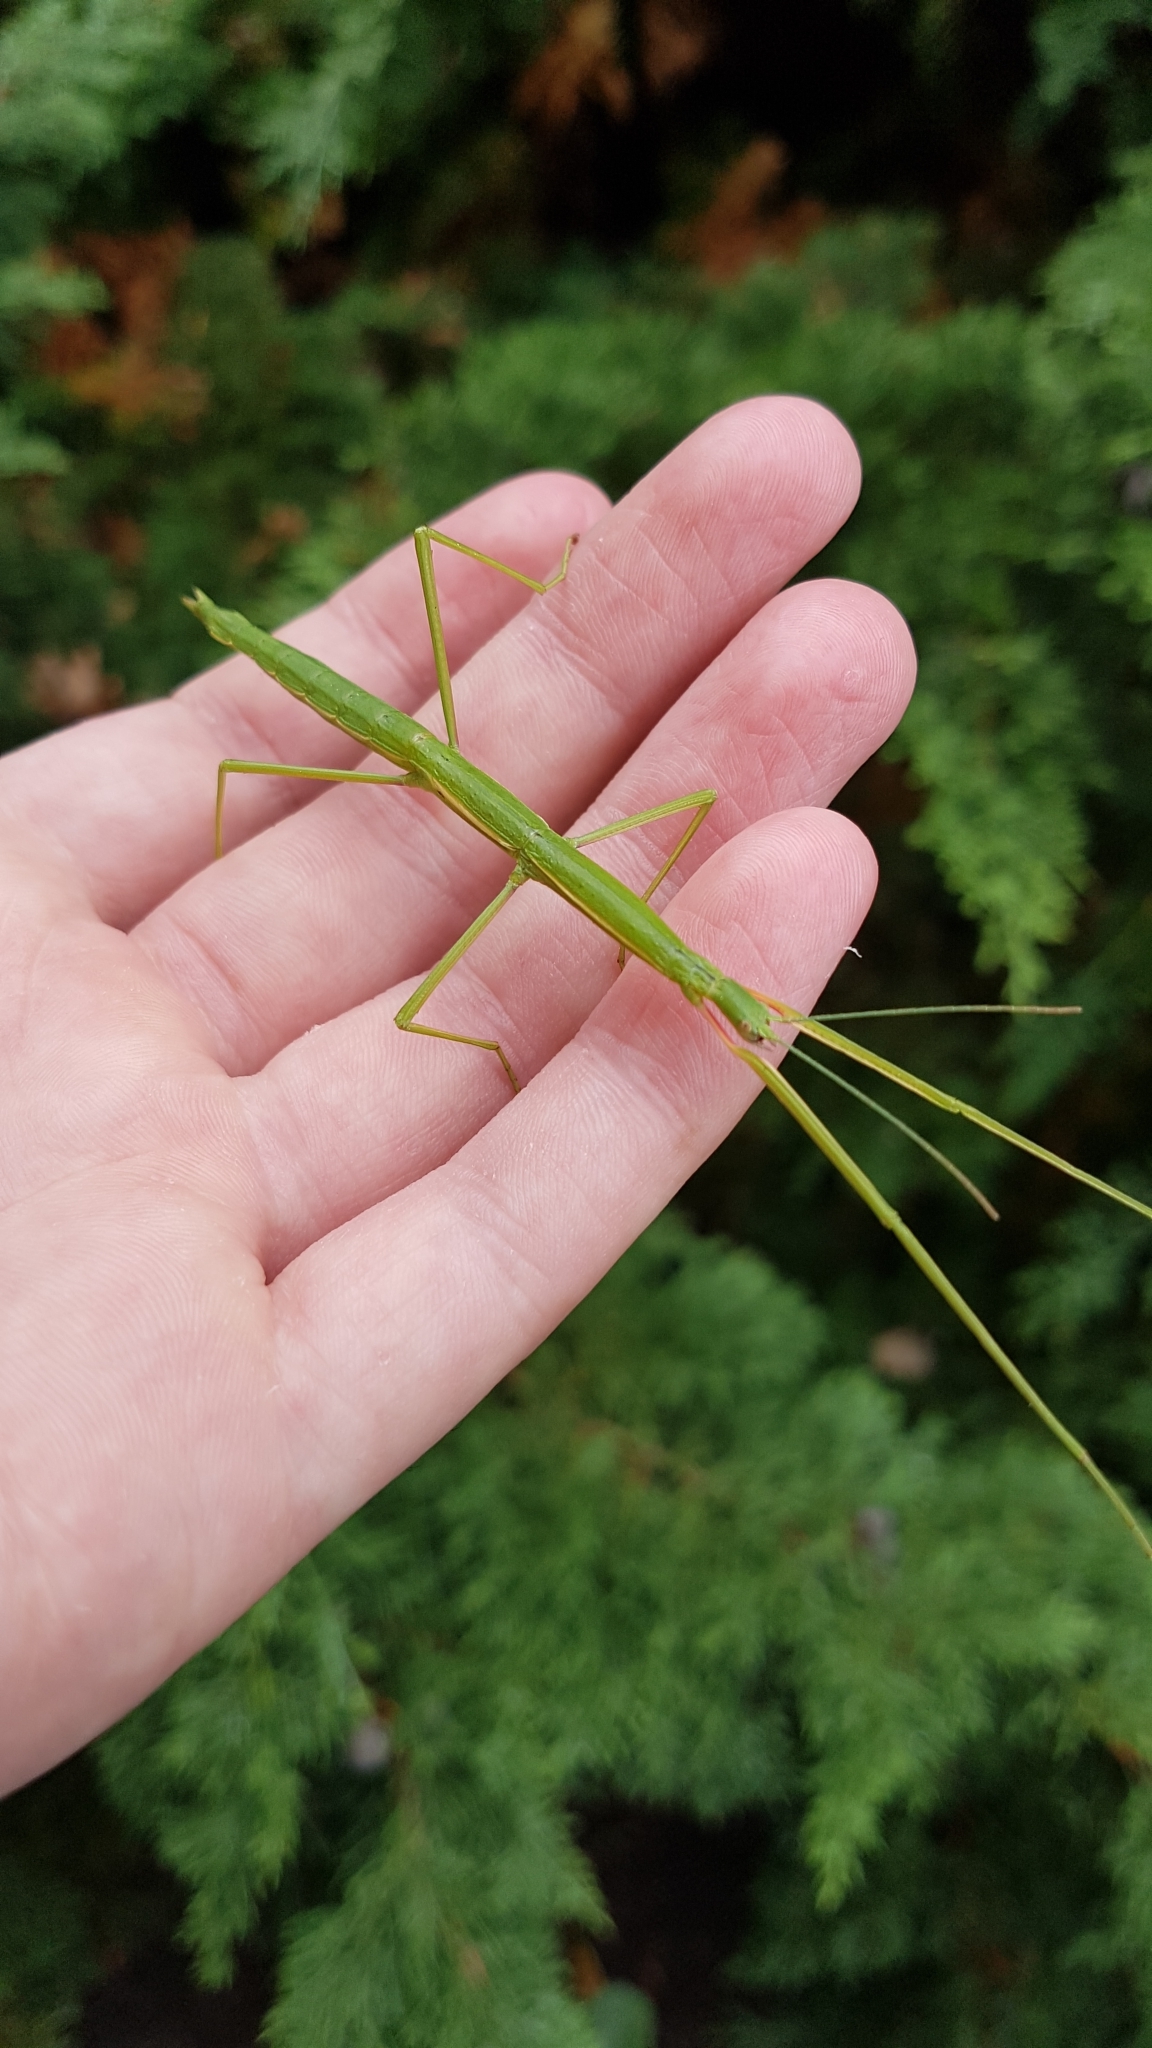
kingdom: Animalia
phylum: Arthropoda
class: Insecta
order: Phasmida
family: Phasmatidae
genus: Clitarchus
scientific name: Clitarchus hookeri
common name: Smooth stick insect
